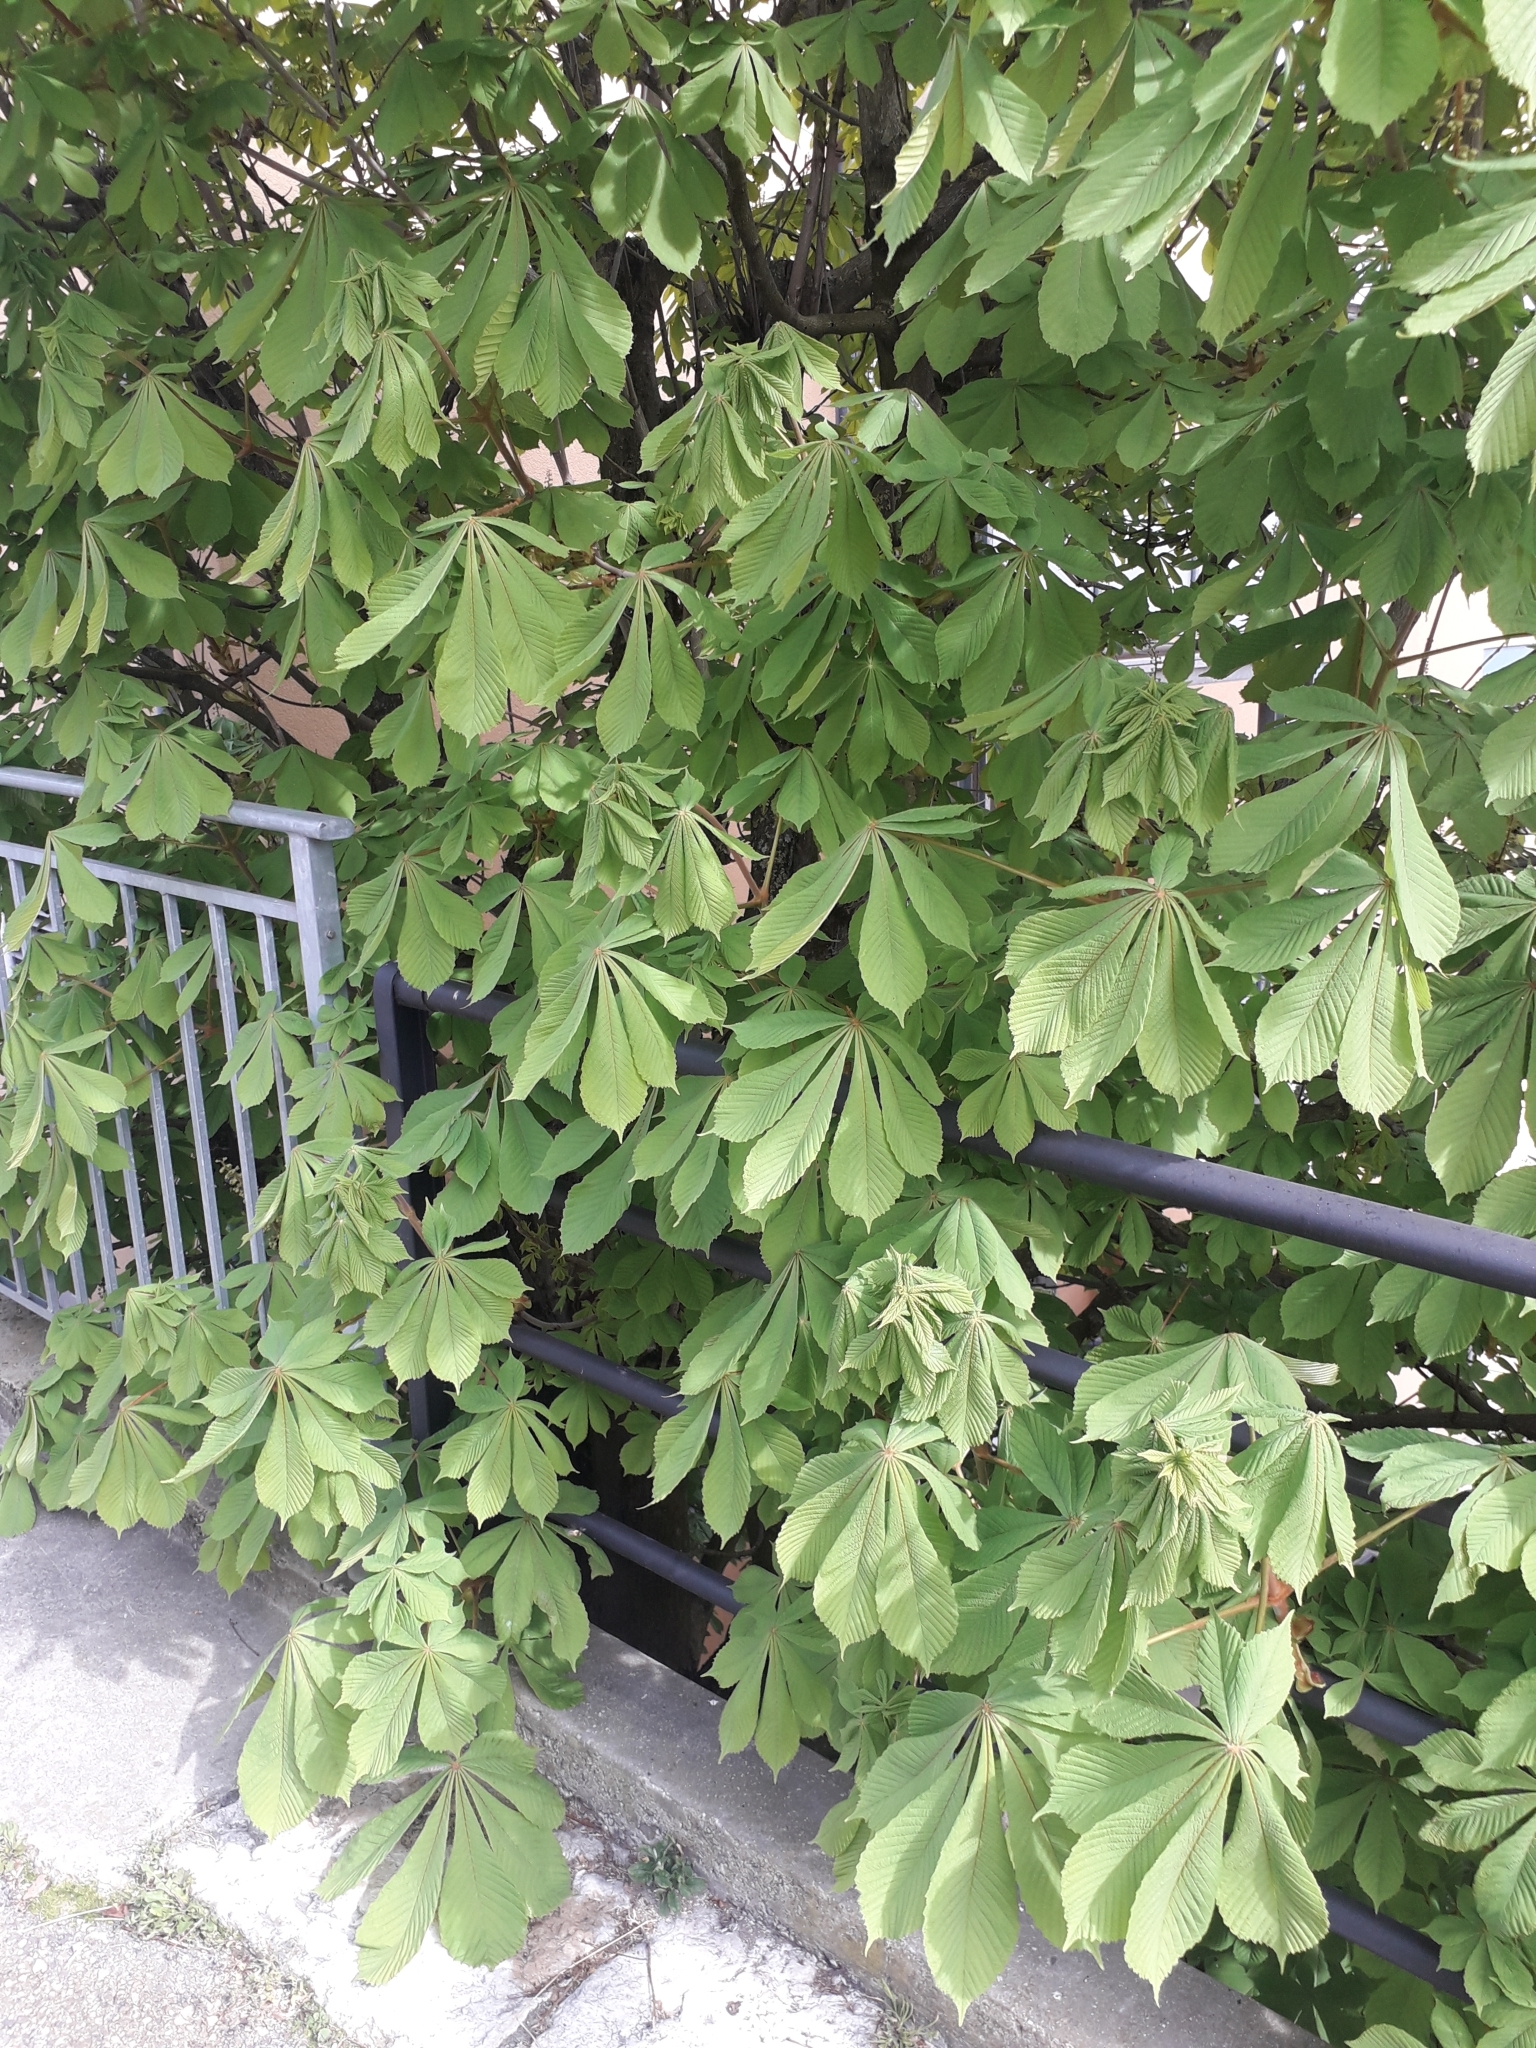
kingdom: Plantae
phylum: Tracheophyta
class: Magnoliopsida
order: Sapindales
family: Sapindaceae
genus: Aesculus
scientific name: Aesculus hippocastanum
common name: Horse-chestnut
